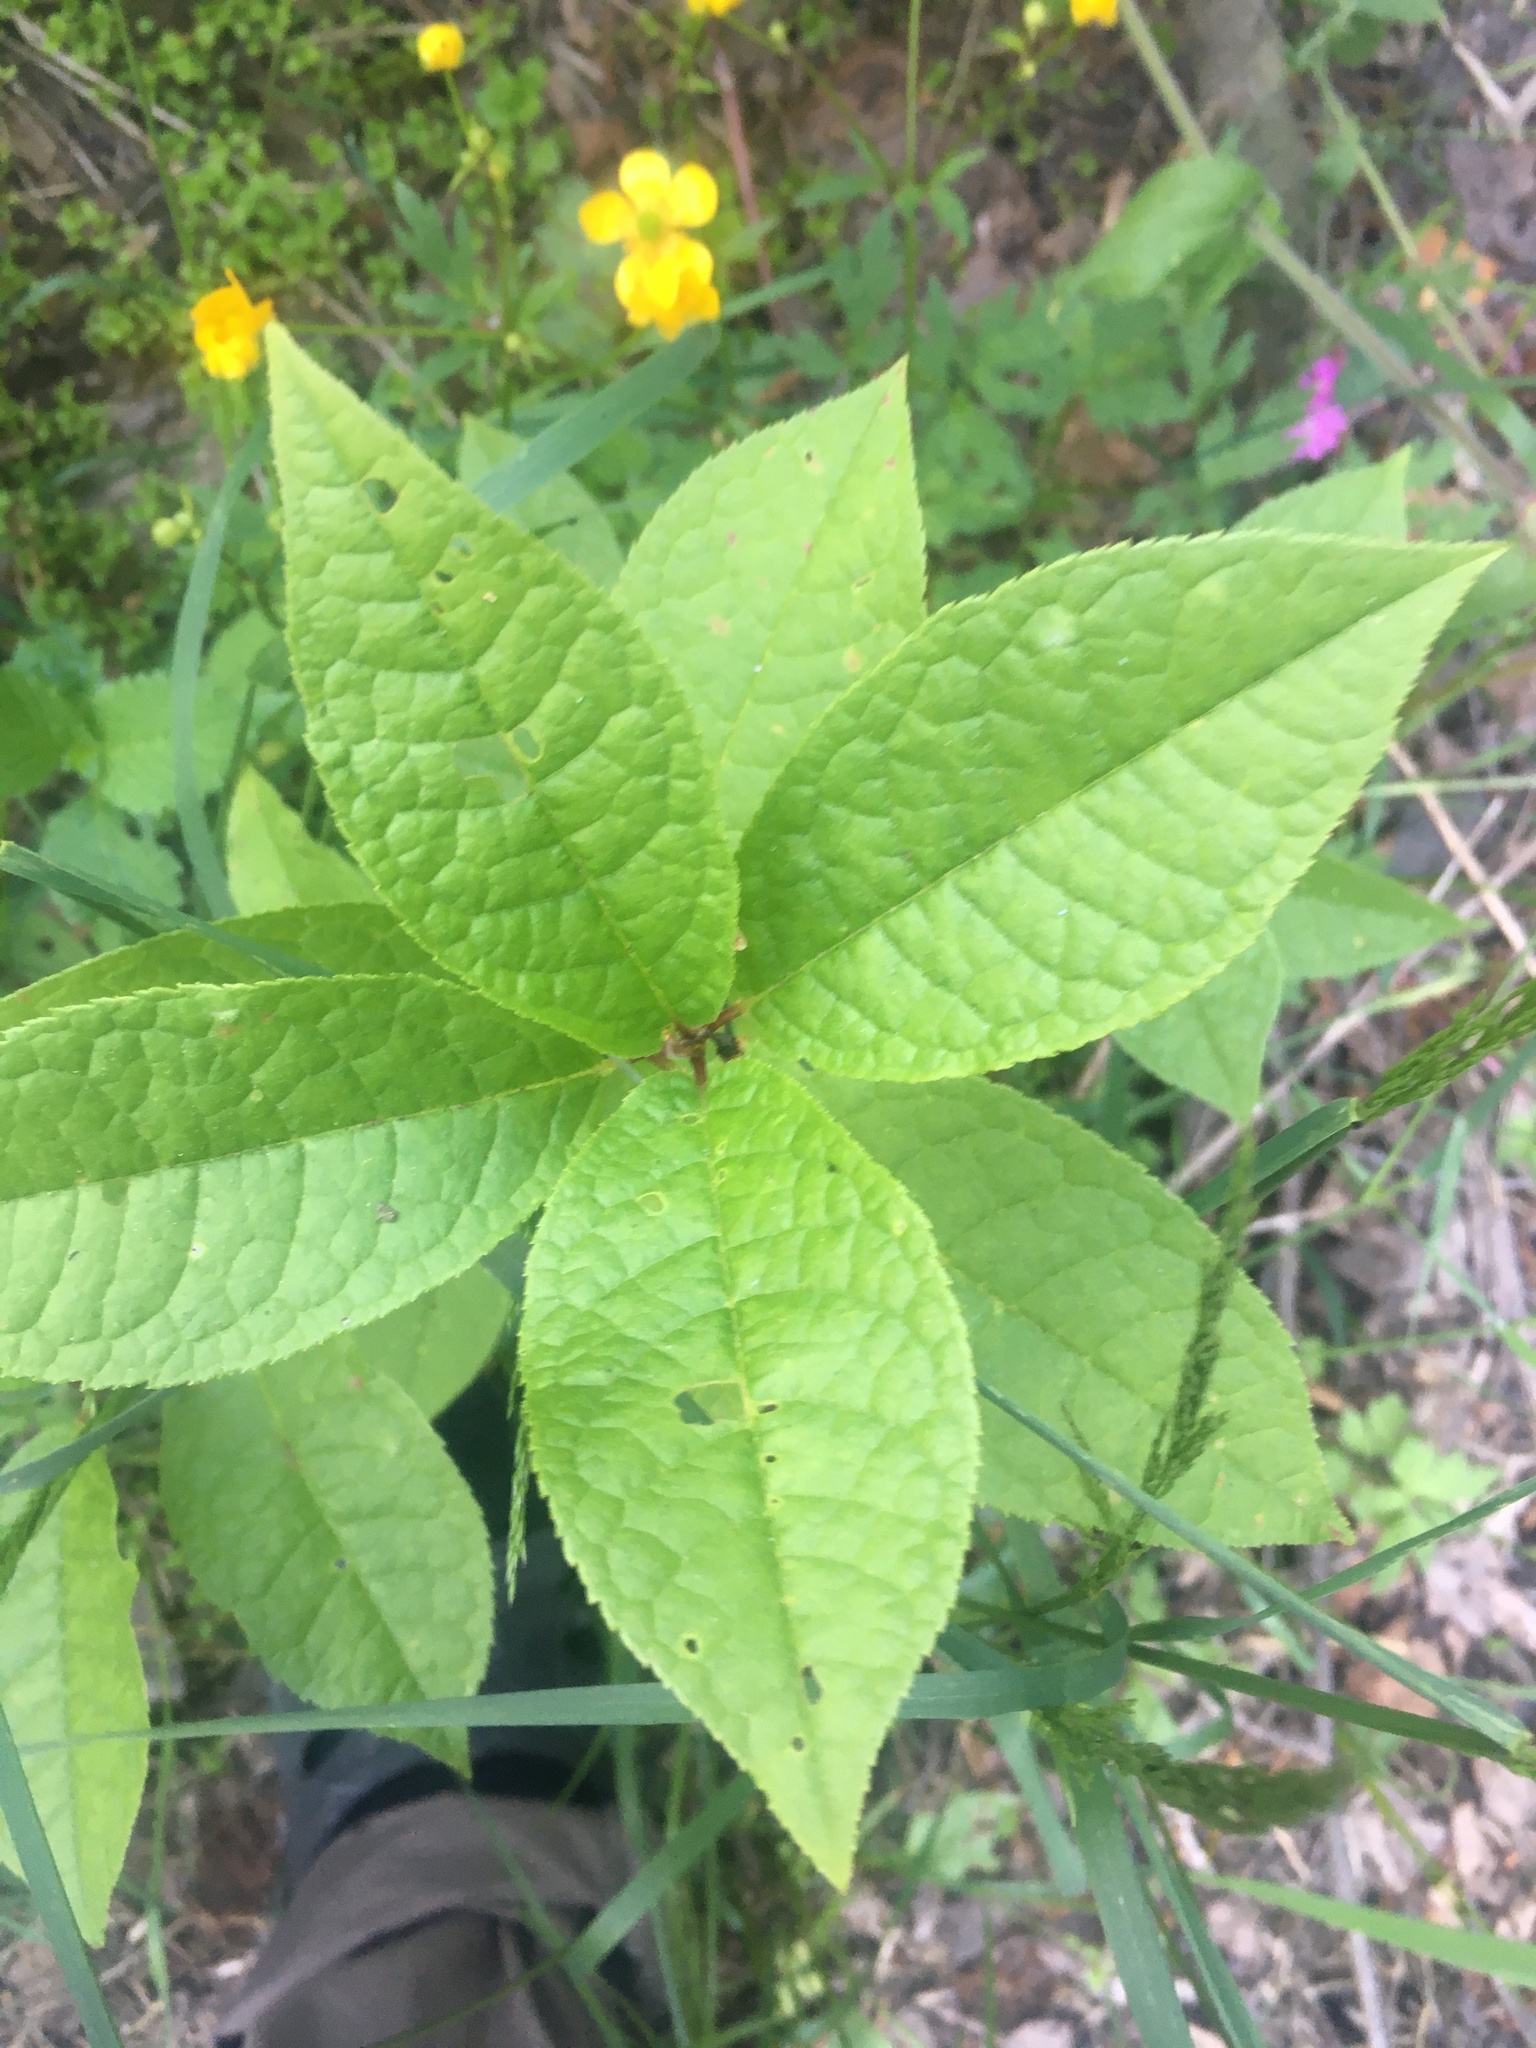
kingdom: Plantae
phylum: Tracheophyta
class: Magnoliopsida
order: Rosales
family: Rosaceae
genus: Prunus
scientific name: Prunus padus
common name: Bird cherry
